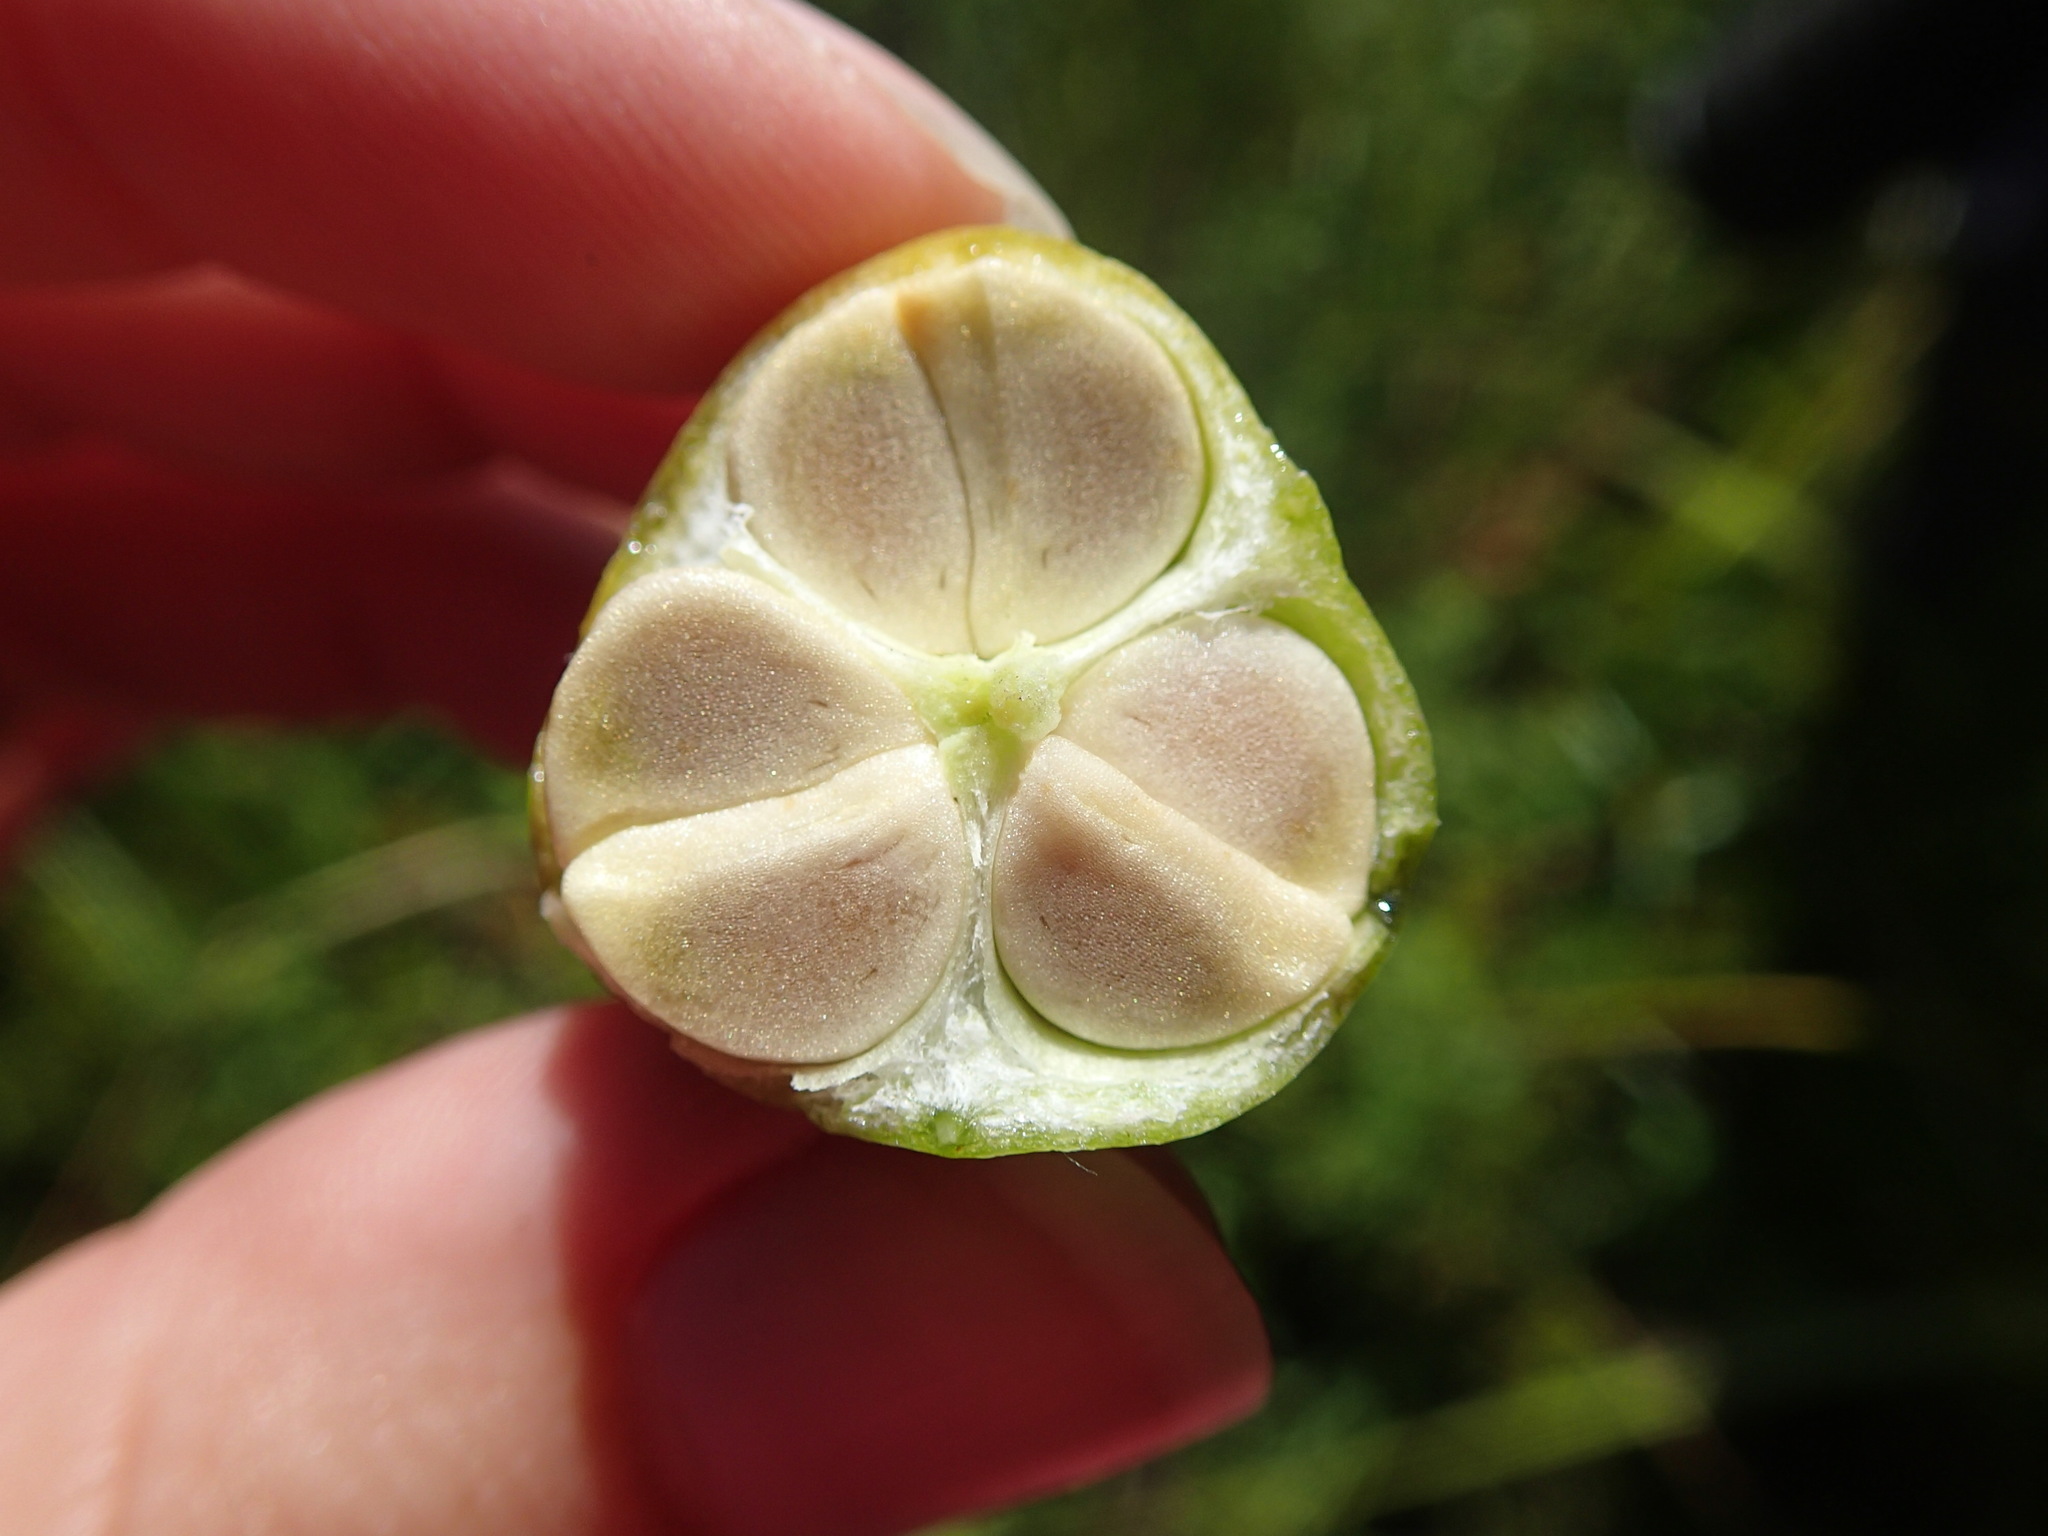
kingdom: Plantae
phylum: Tracheophyta
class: Liliopsida
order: Asparagales
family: Iridaceae
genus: Iris
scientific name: Iris versicolor
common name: Purple iris
